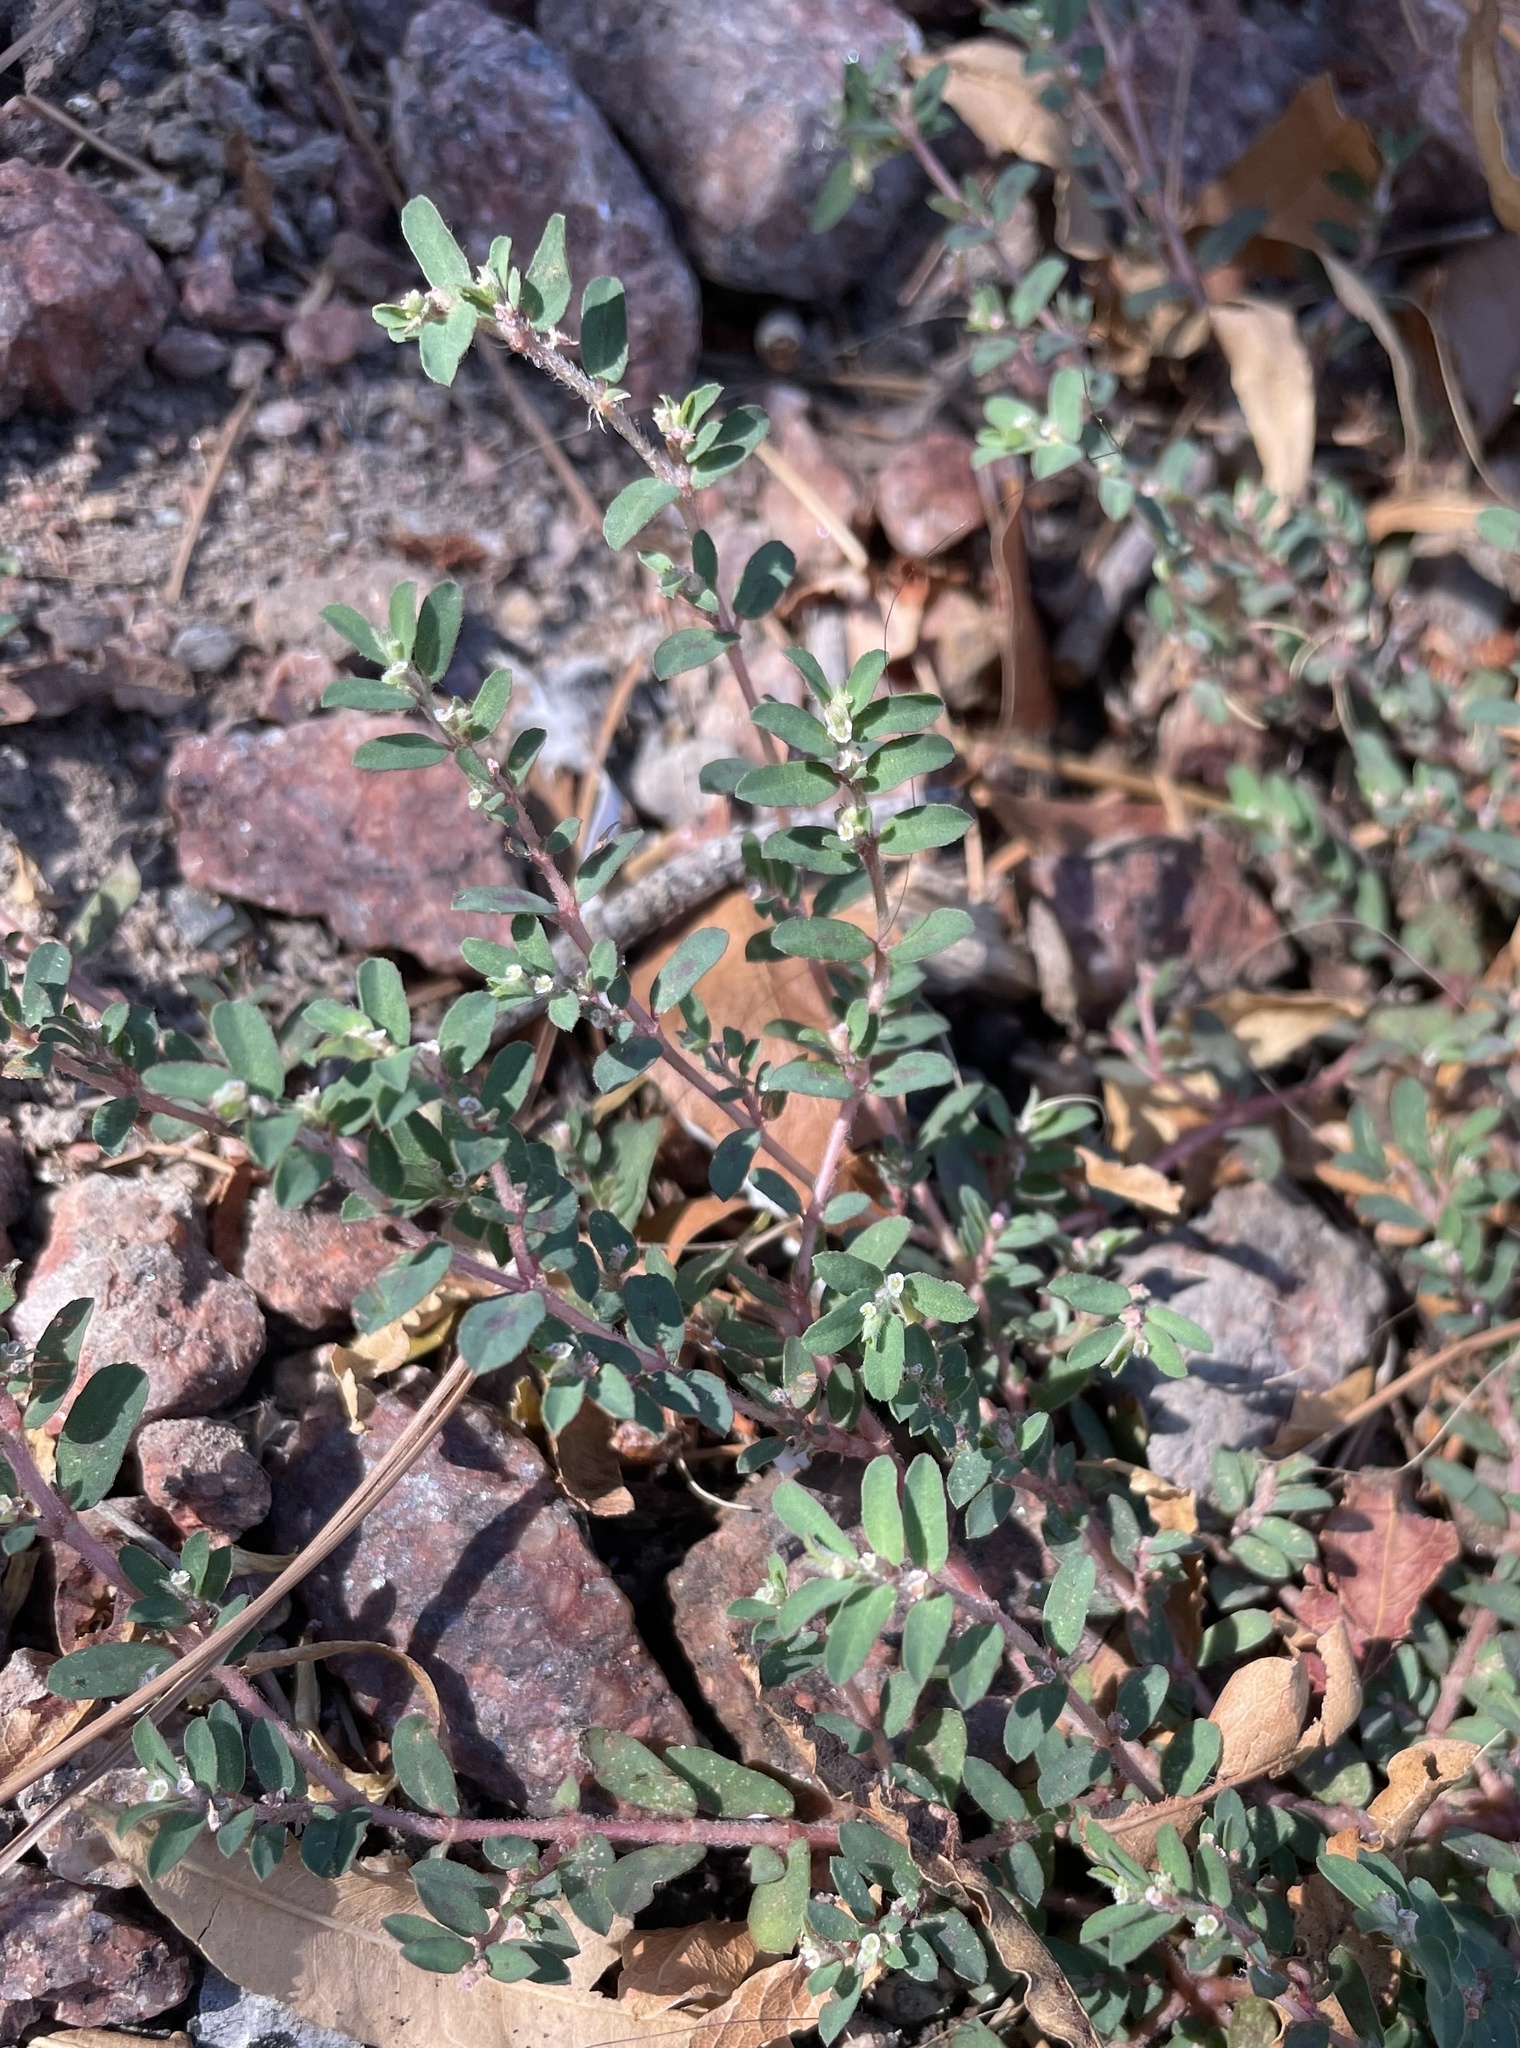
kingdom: Plantae
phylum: Tracheophyta
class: Magnoliopsida
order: Malpighiales
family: Euphorbiaceae
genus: Euphorbia
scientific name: Euphorbia maculata
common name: Spotted spurge
